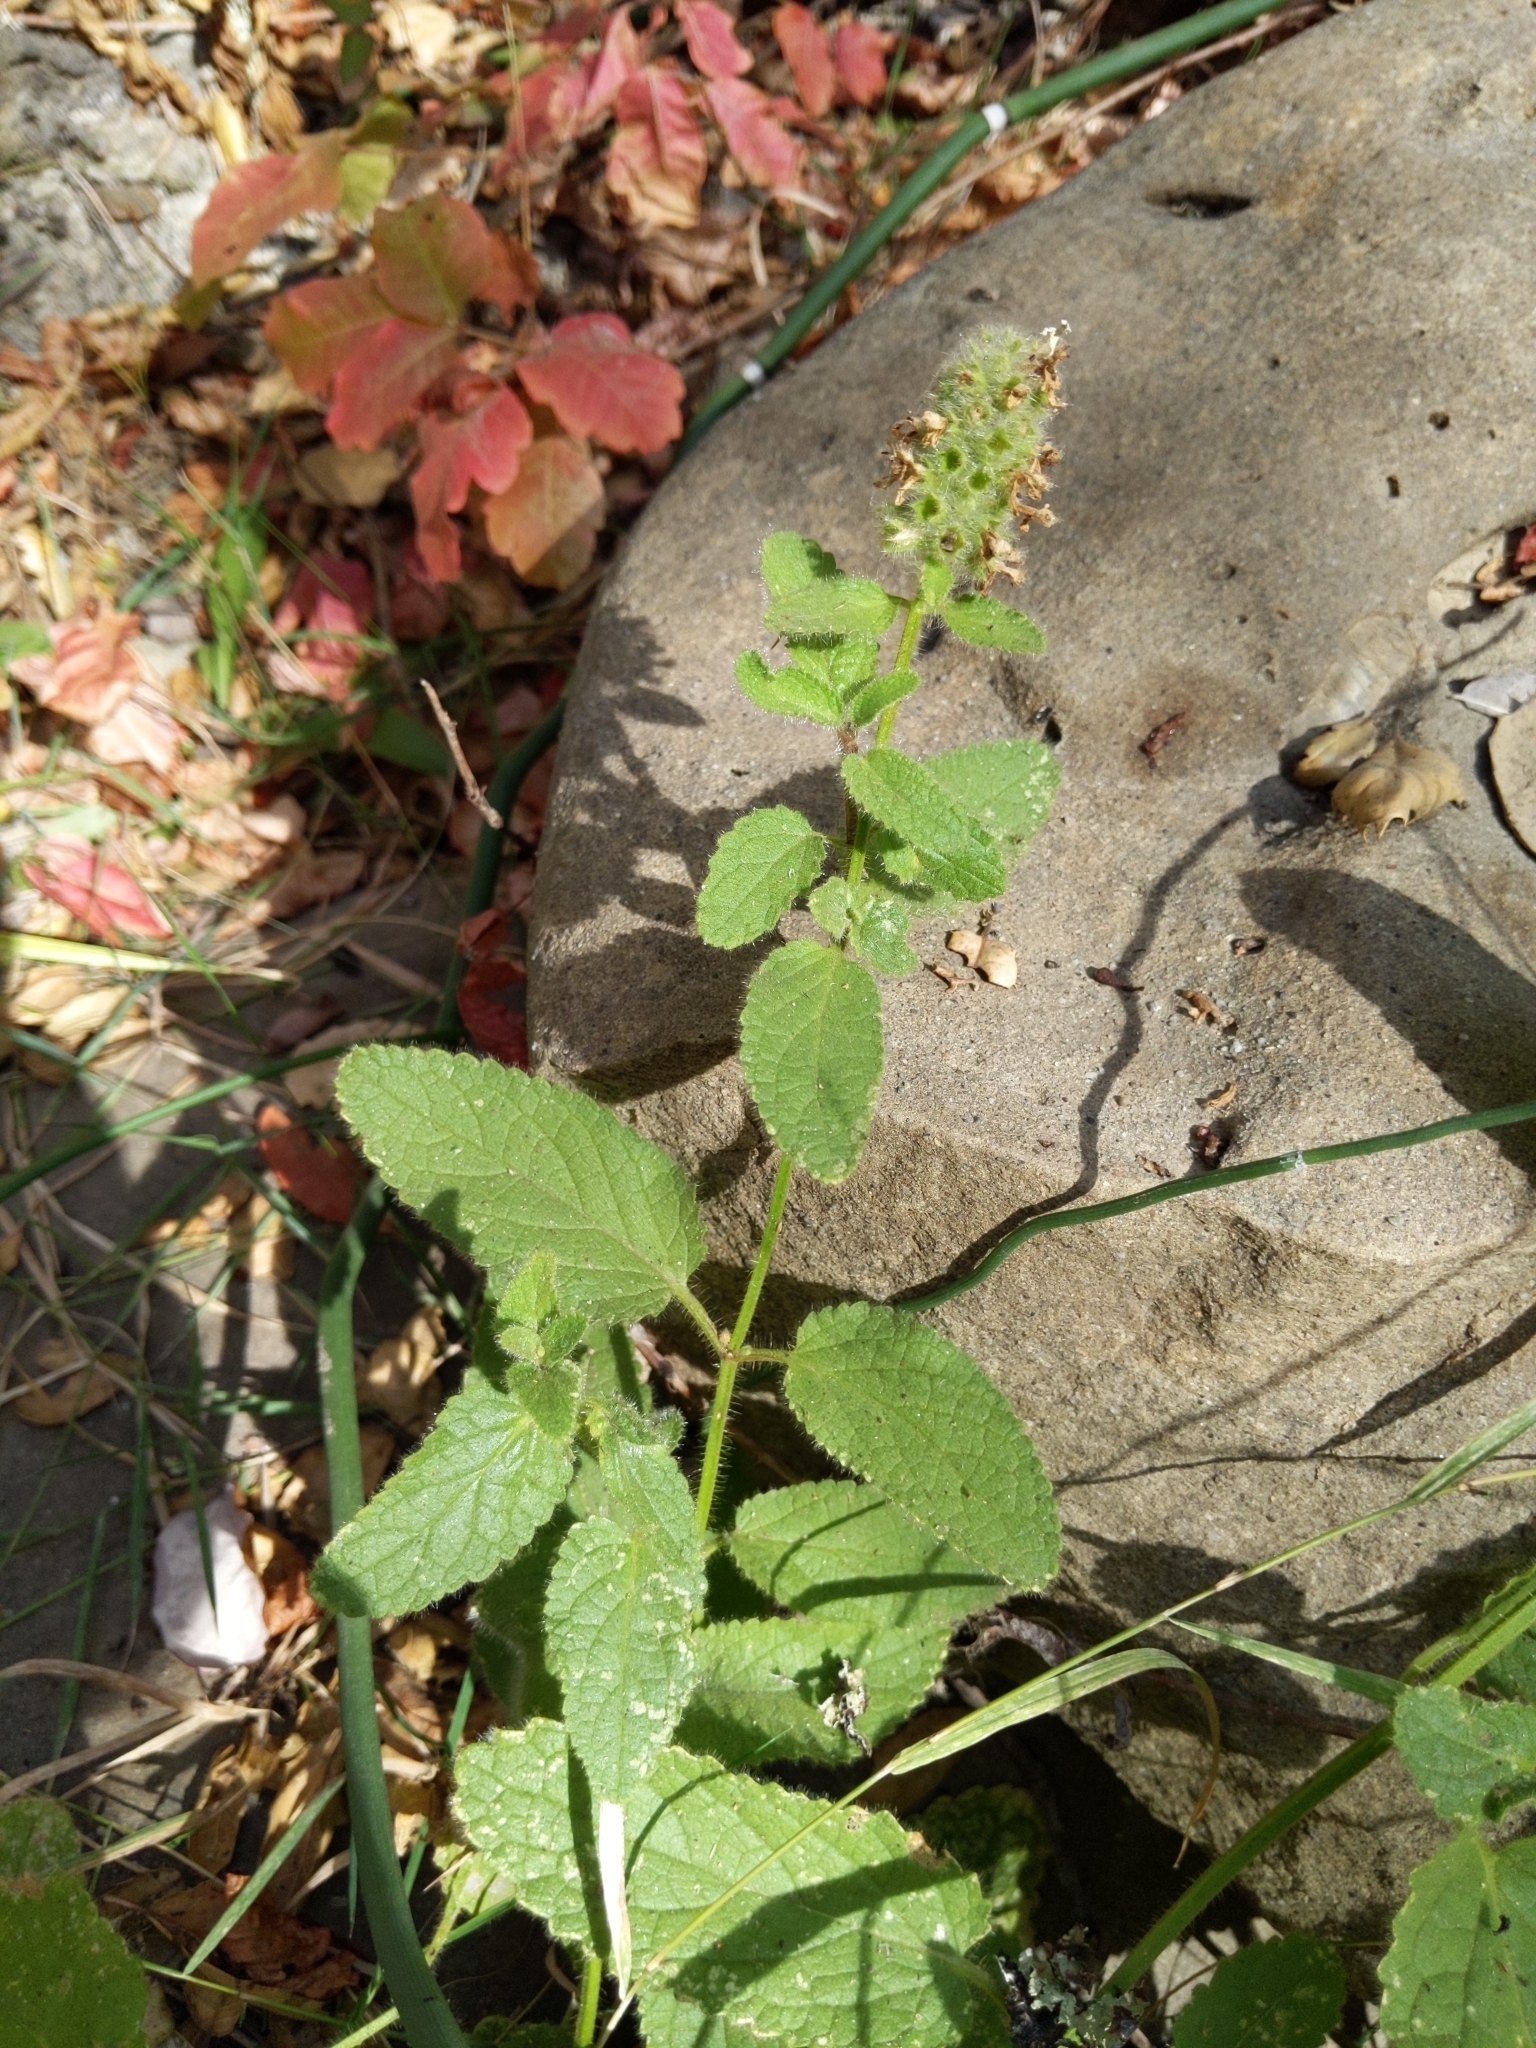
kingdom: Plantae
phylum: Tracheophyta
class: Magnoliopsida
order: Lamiales
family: Lamiaceae
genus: Stachys
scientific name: Stachys pycnantha
